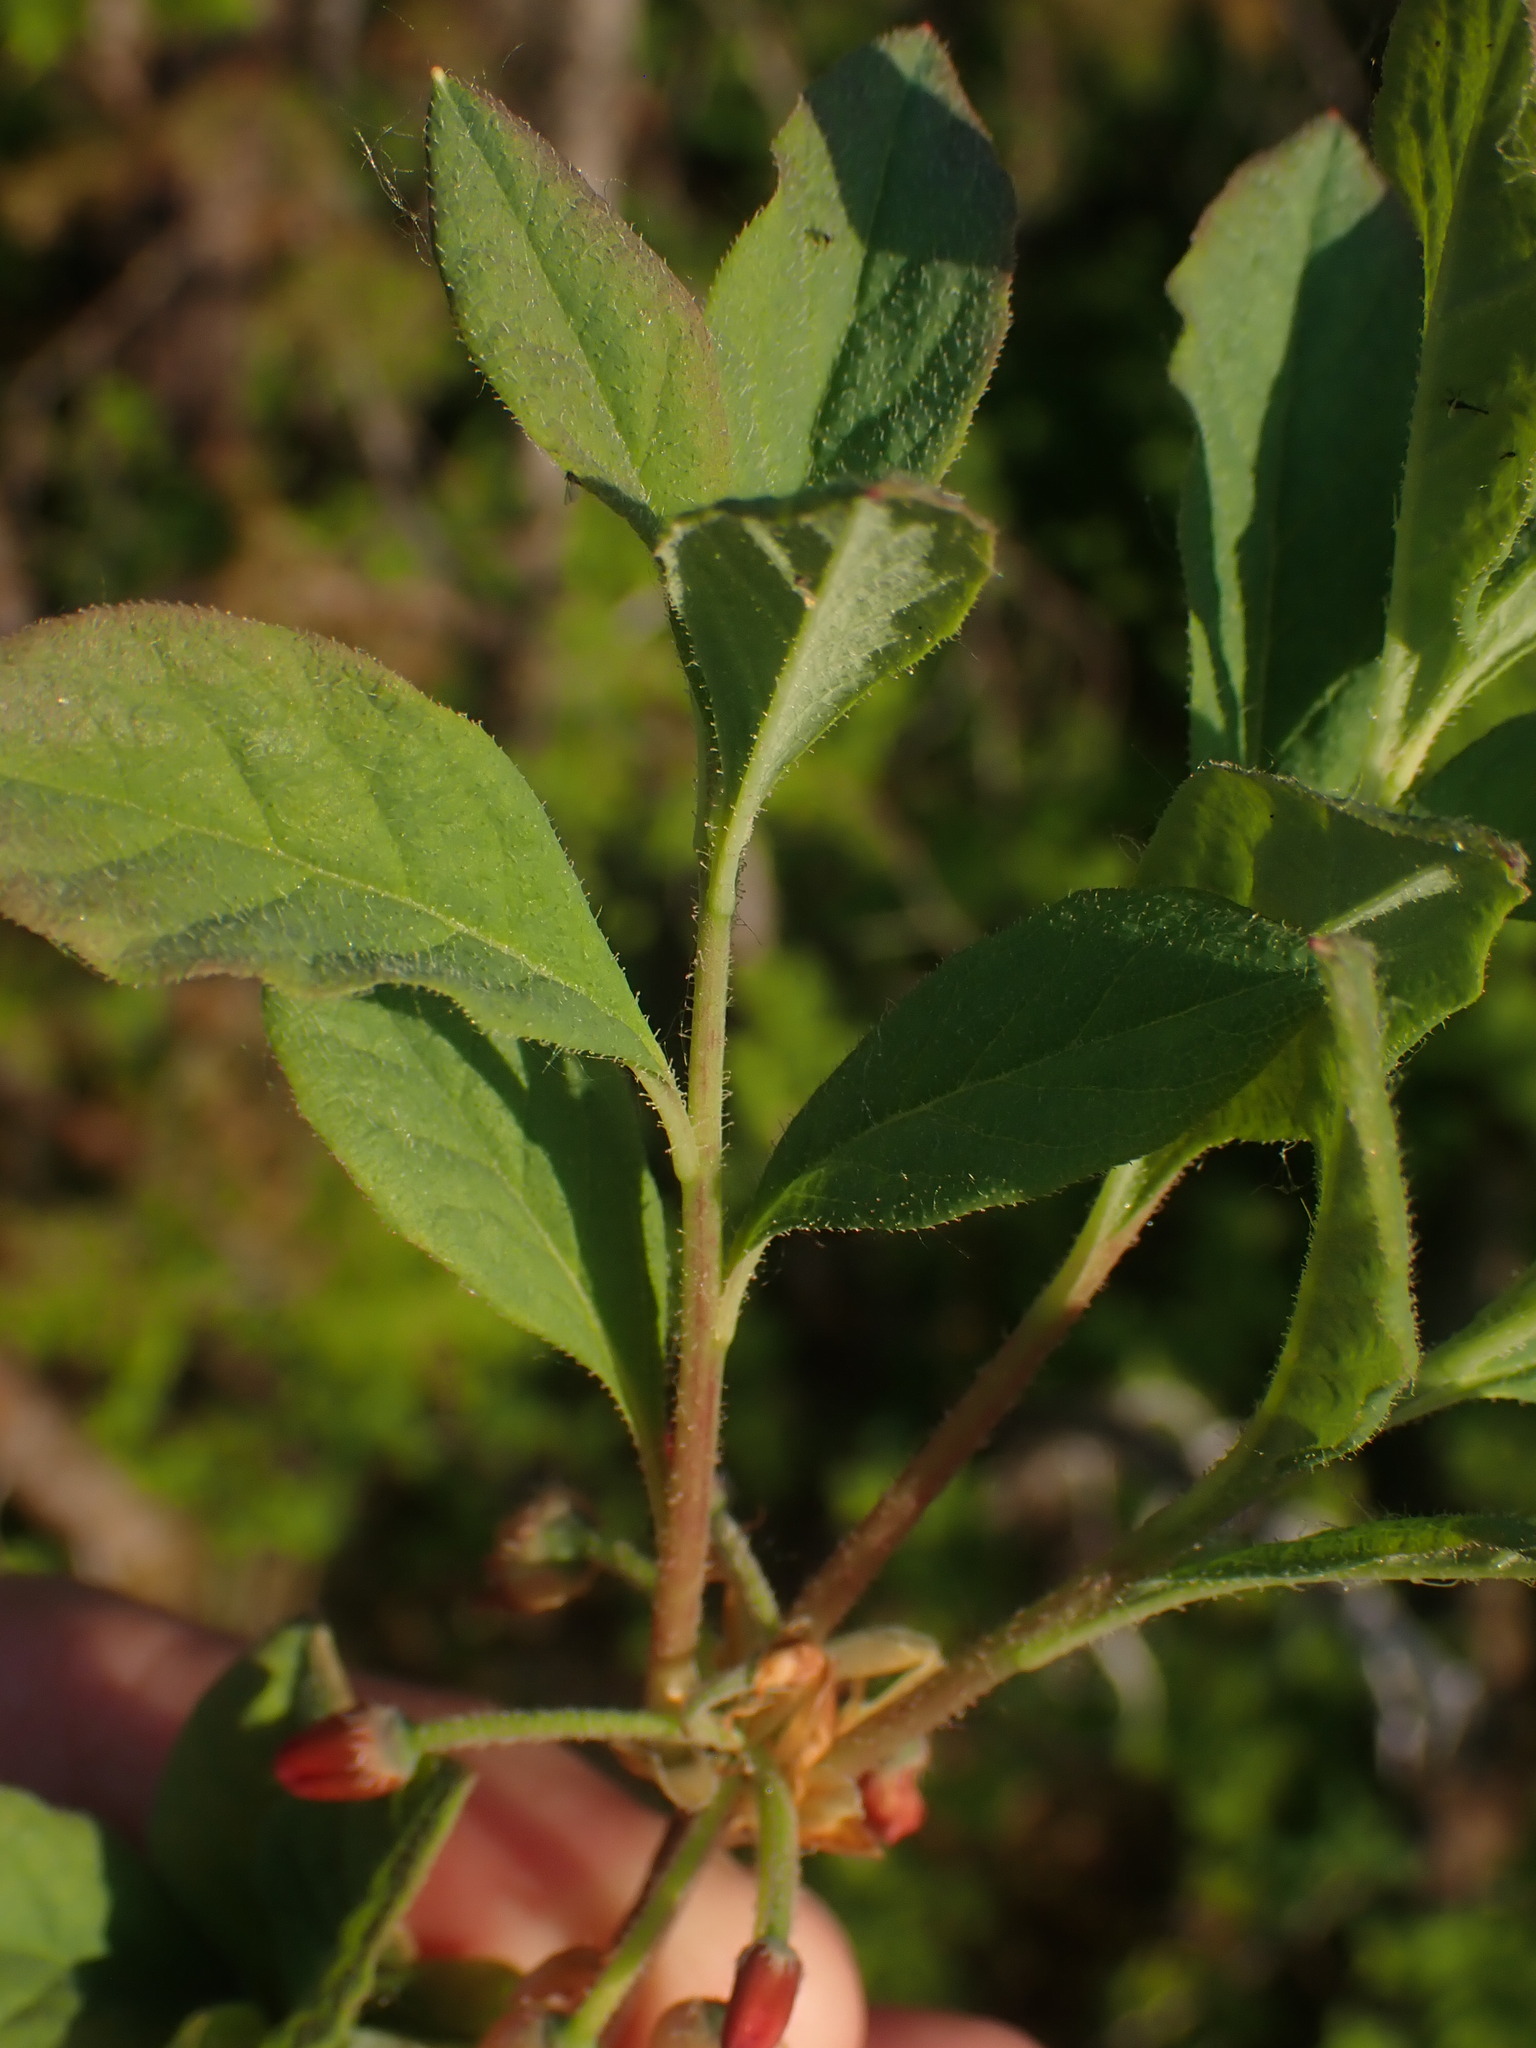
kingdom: Plantae
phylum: Tracheophyta
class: Magnoliopsida
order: Ericales
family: Ericaceae
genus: Rhododendron
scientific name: Rhododendron menziesii
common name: Pacific menziesia
